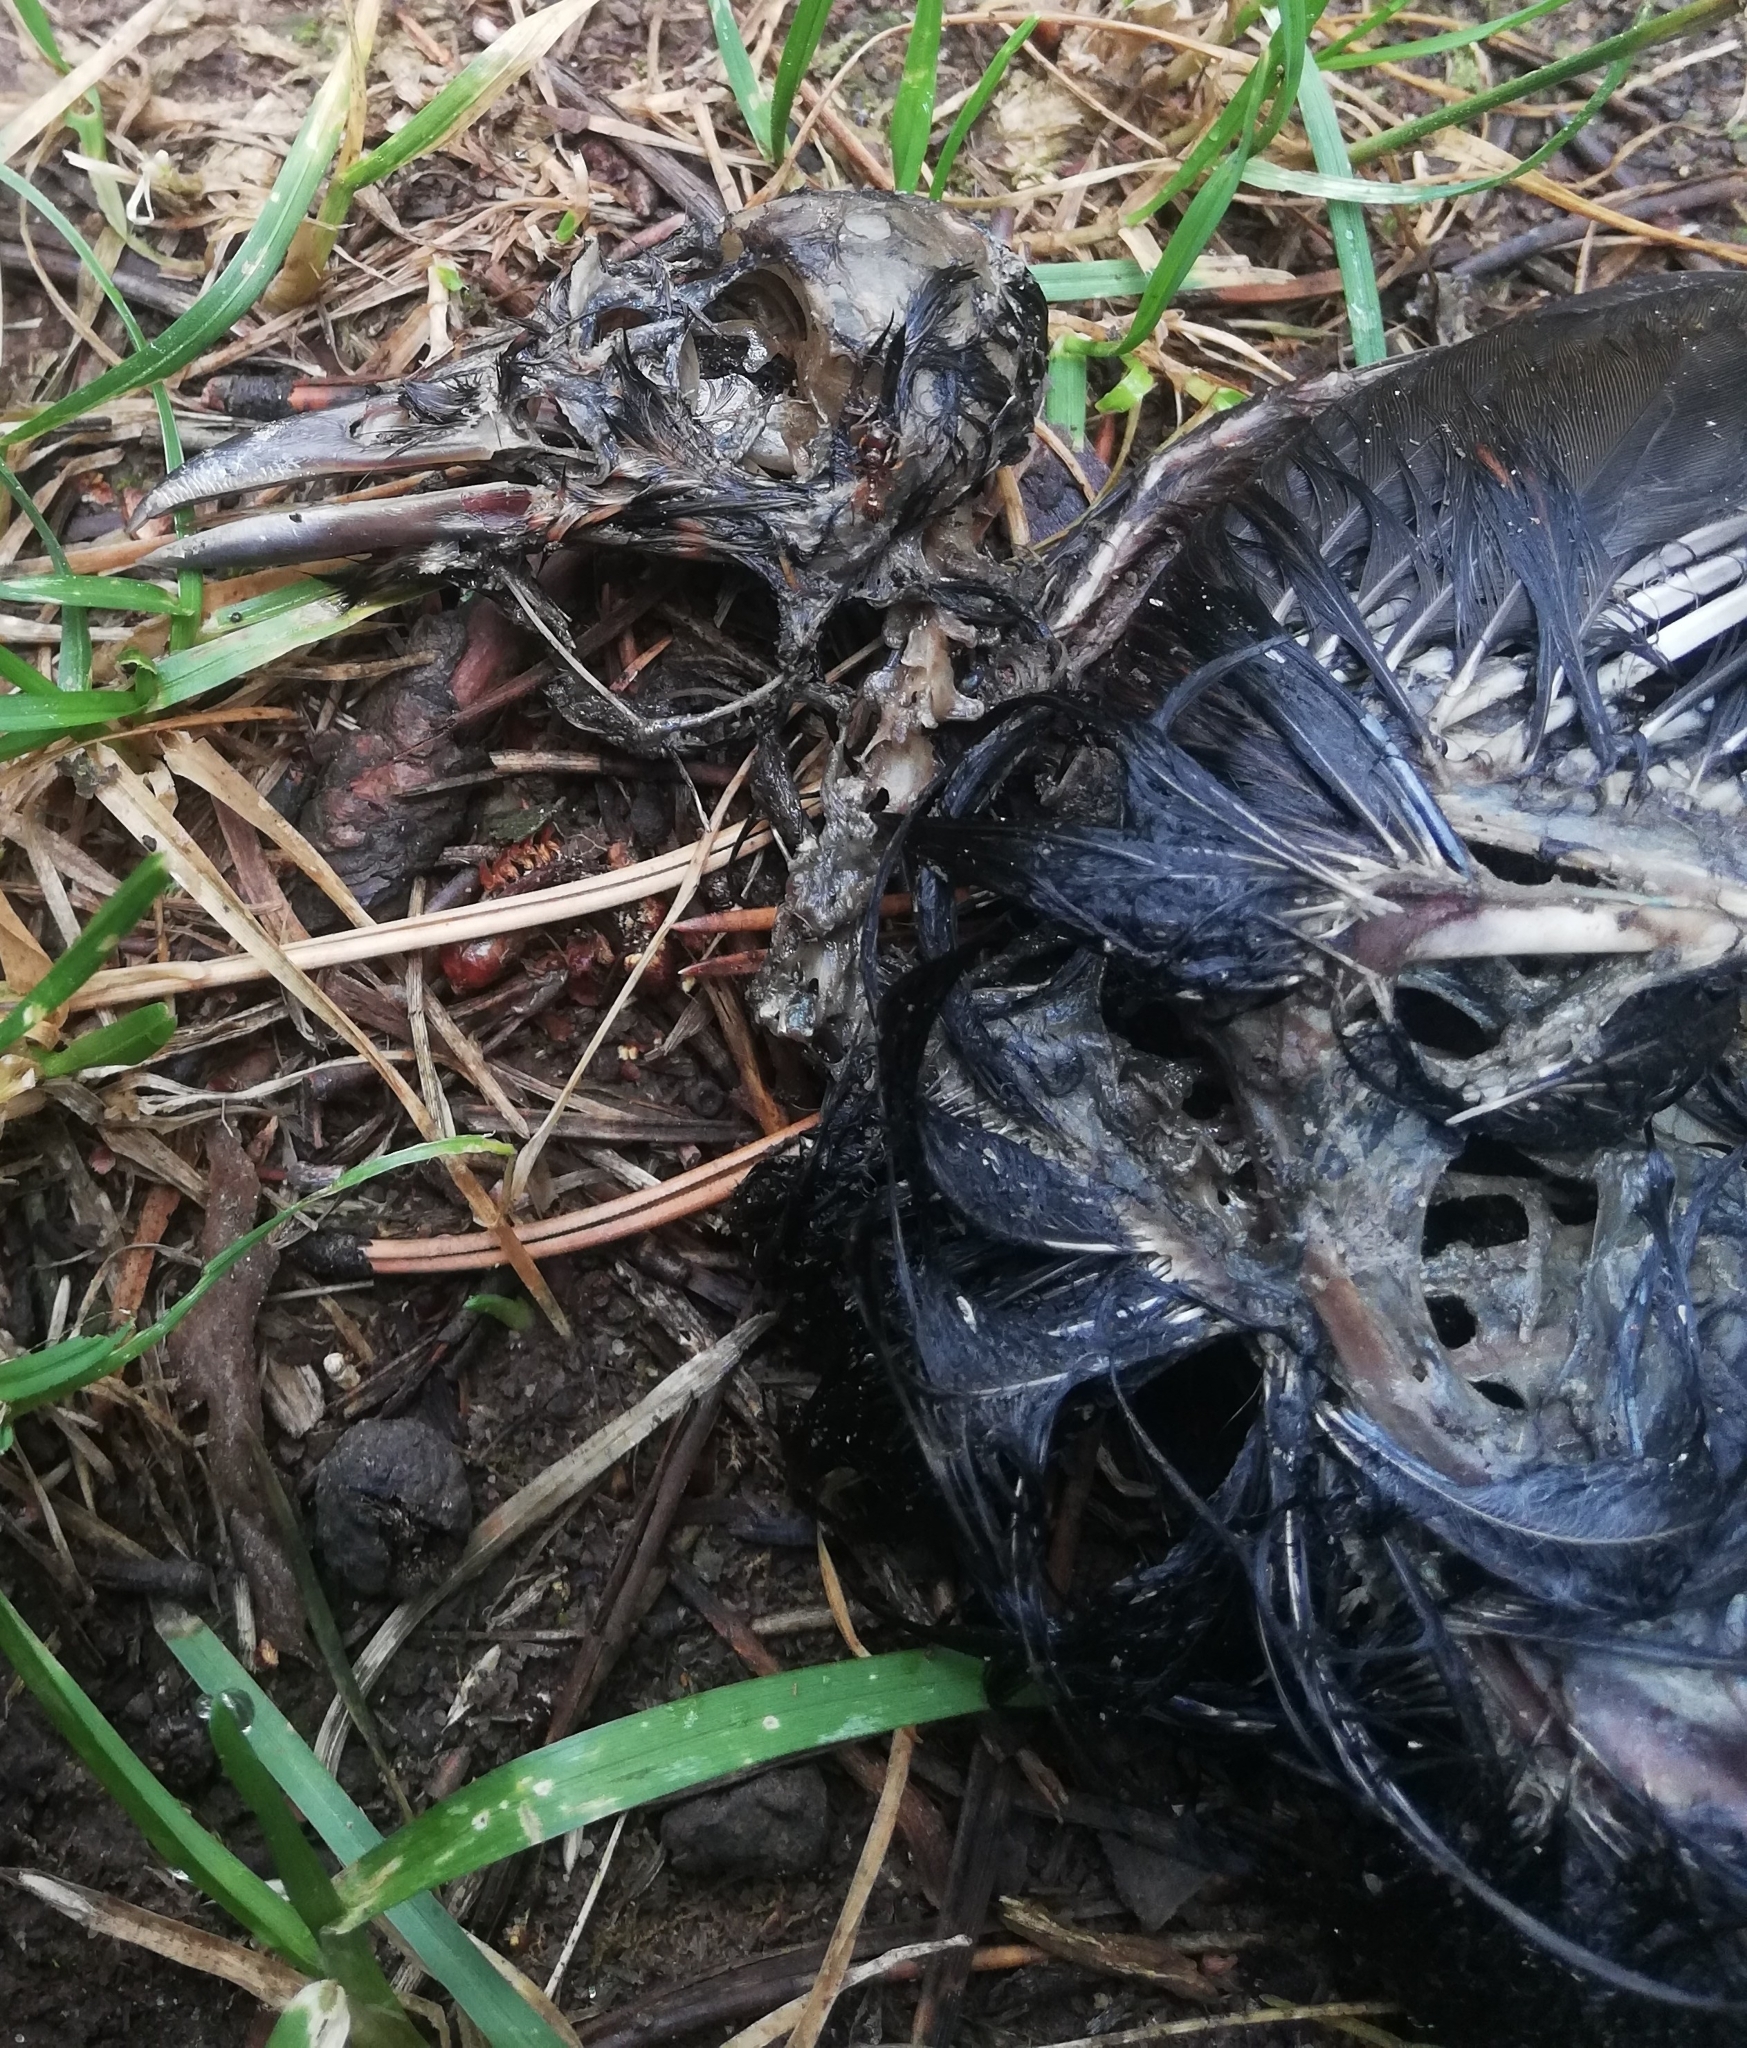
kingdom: Animalia
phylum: Chordata
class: Aves
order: Passeriformes
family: Turdidae
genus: Turdus
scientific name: Turdus merula
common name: Common blackbird
